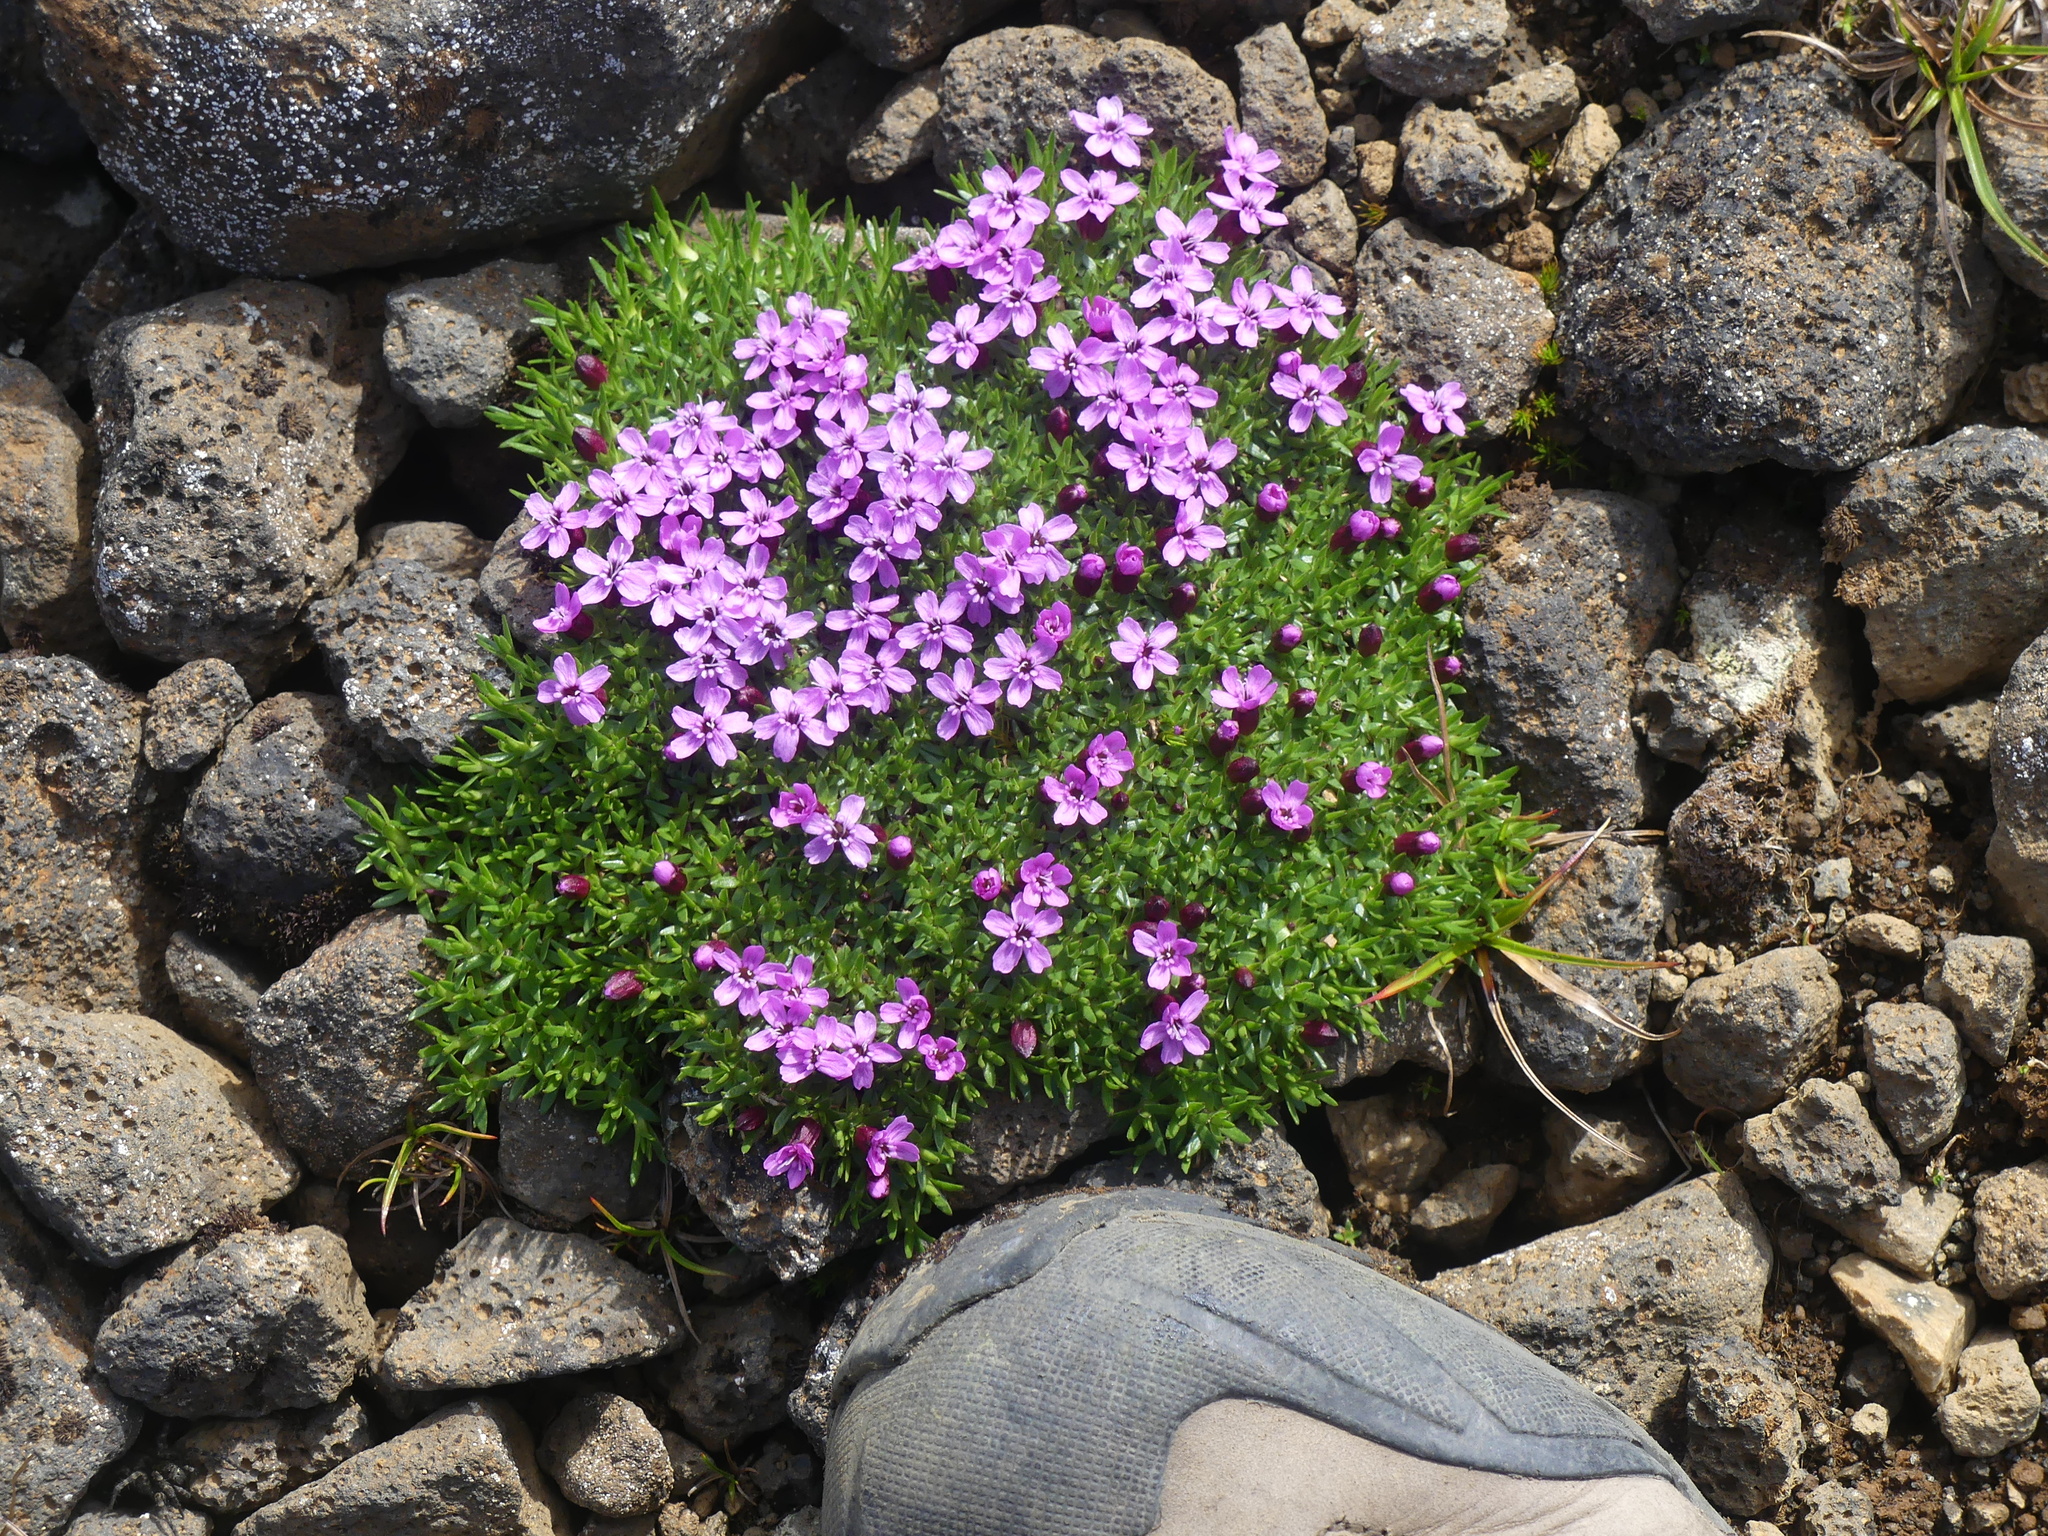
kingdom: Plantae
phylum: Tracheophyta
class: Magnoliopsida
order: Caryophyllales
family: Caryophyllaceae
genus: Silene
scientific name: Silene acaulis
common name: Moss campion
